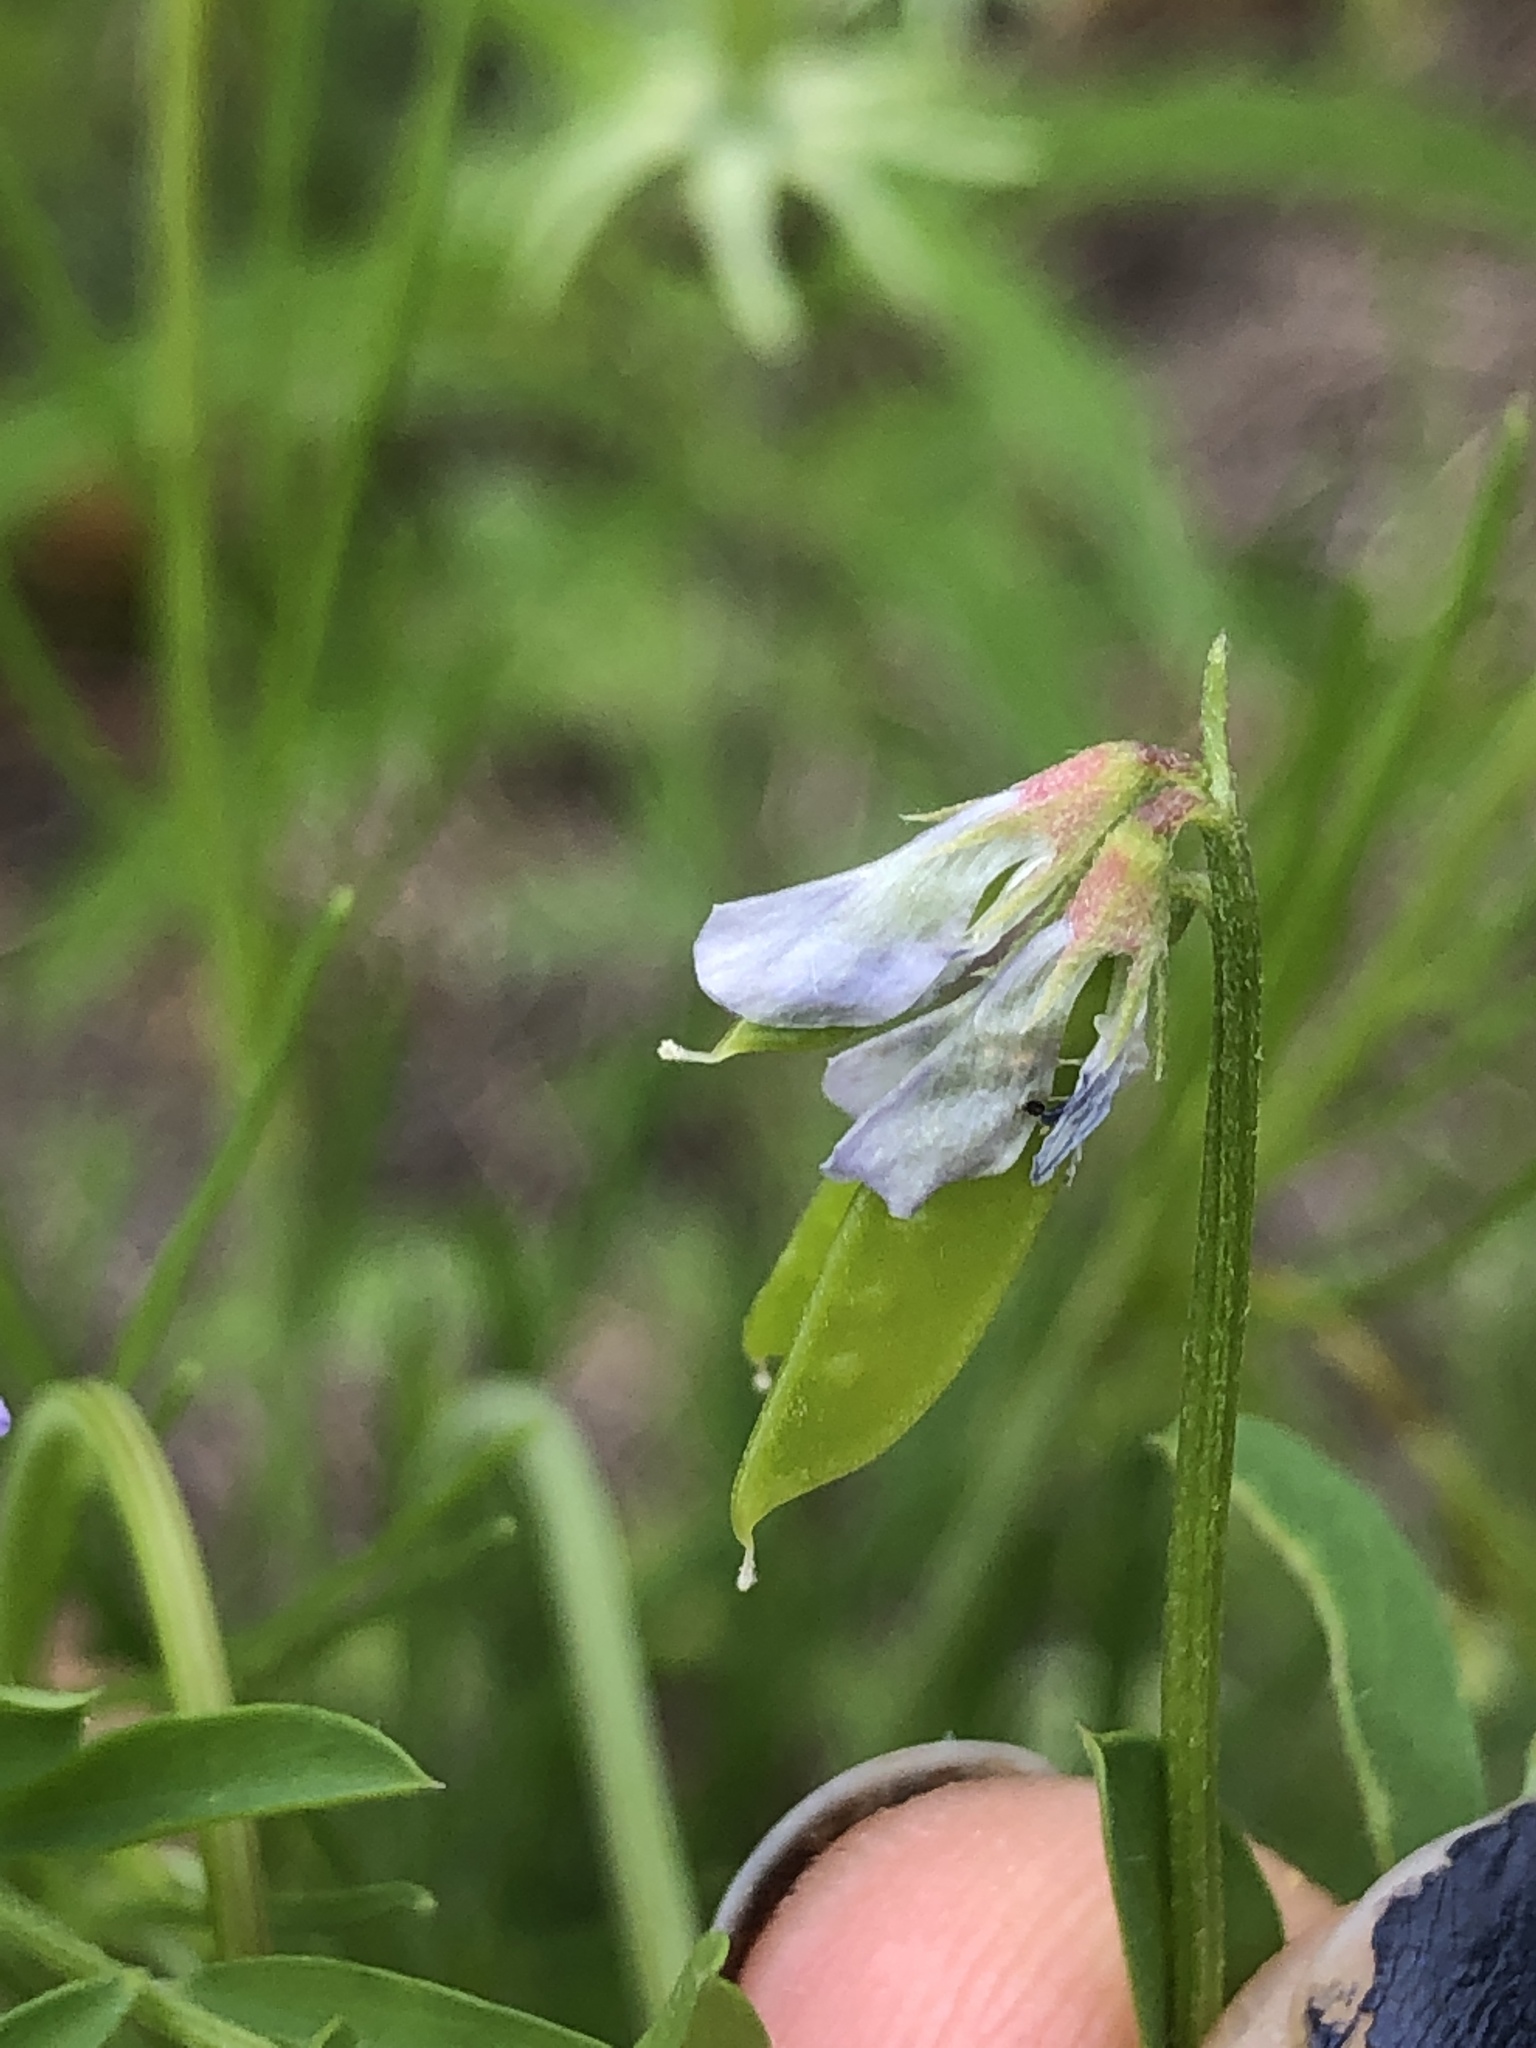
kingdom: Plantae
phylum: Tracheophyta
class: Magnoliopsida
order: Fabales
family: Fabaceae
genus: Vicia
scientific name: Vicia ludoviciana
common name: Louisiana vetch
